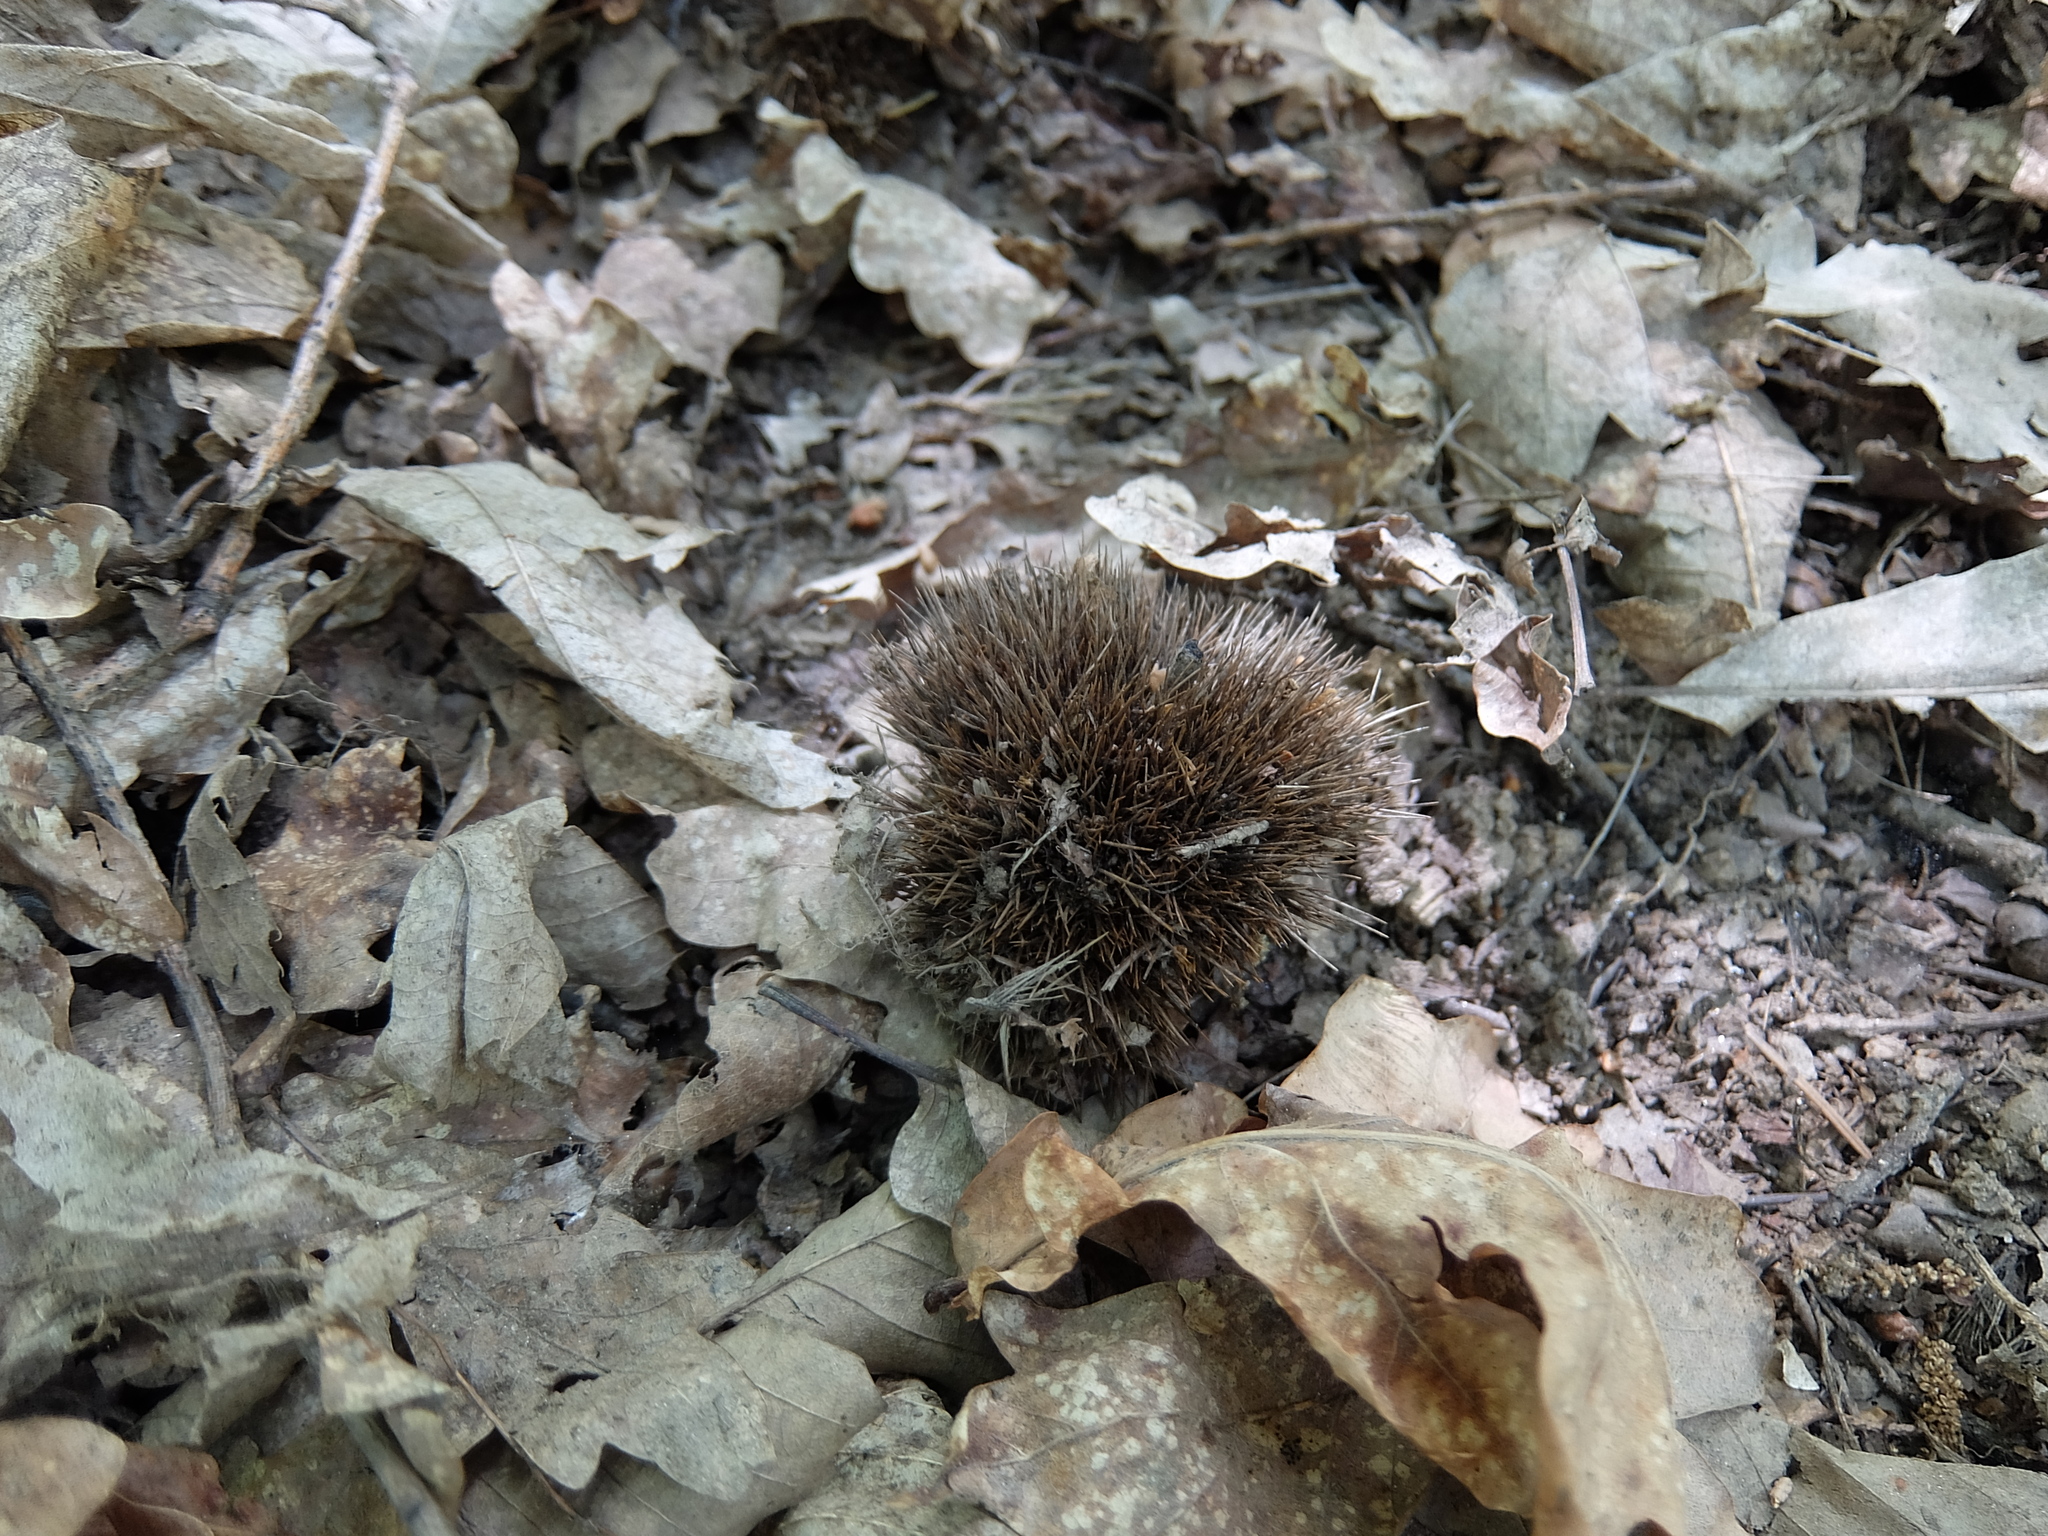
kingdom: Plantae
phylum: Tracheophyta
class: Magnoliopsida
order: Fagales
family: Fagaceae
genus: Castanea
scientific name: Castanea sativa
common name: Sweet chestnut
